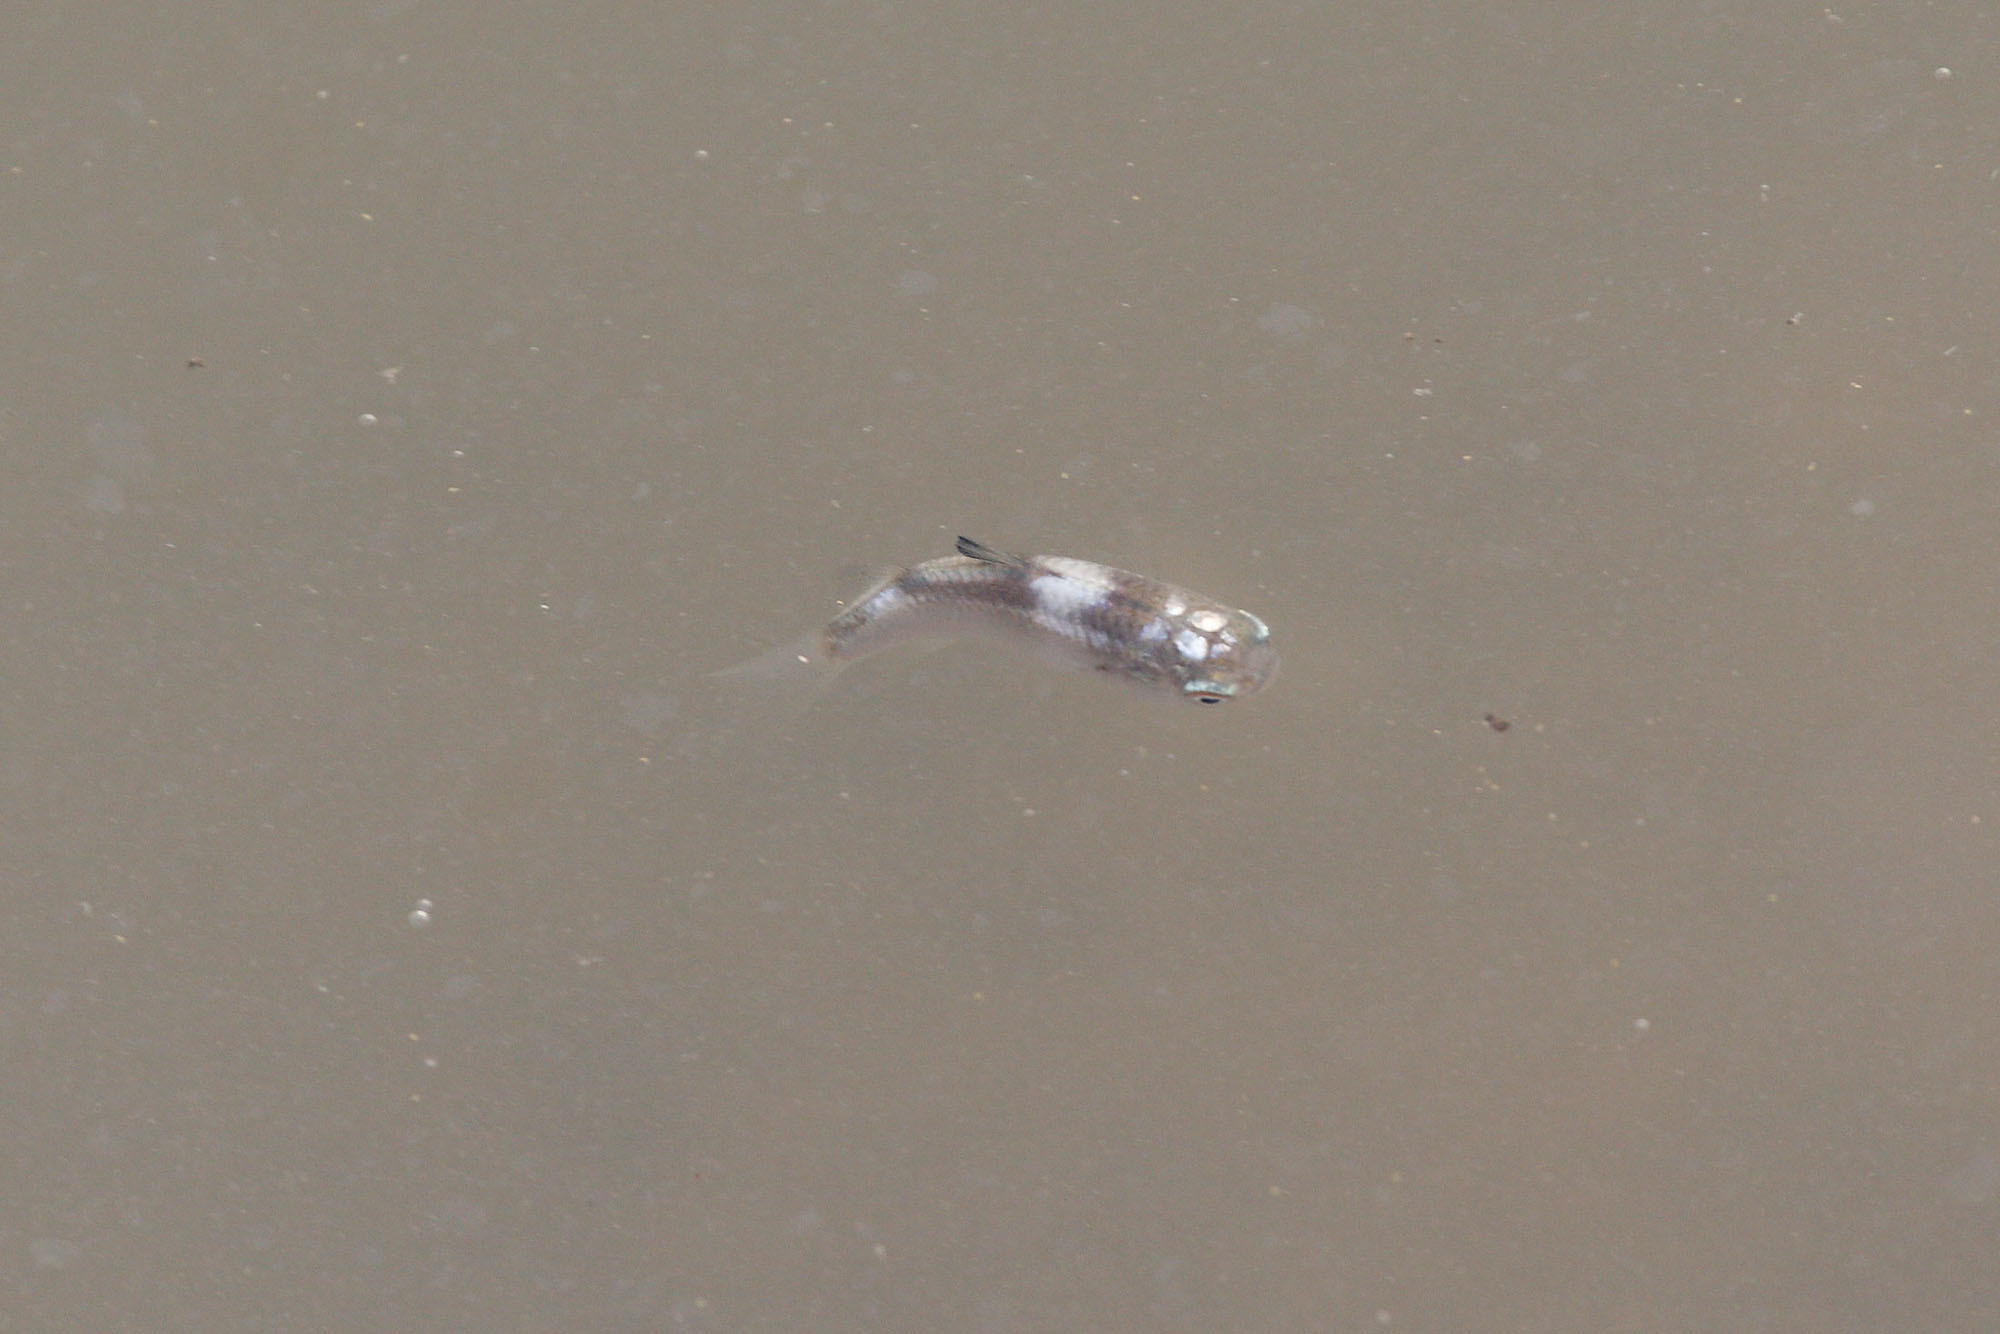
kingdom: Animalia
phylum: Chordata
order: Perciformes
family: Terapontidae
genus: Terapon
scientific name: Terapon jarbua
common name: Jarbua terapon
